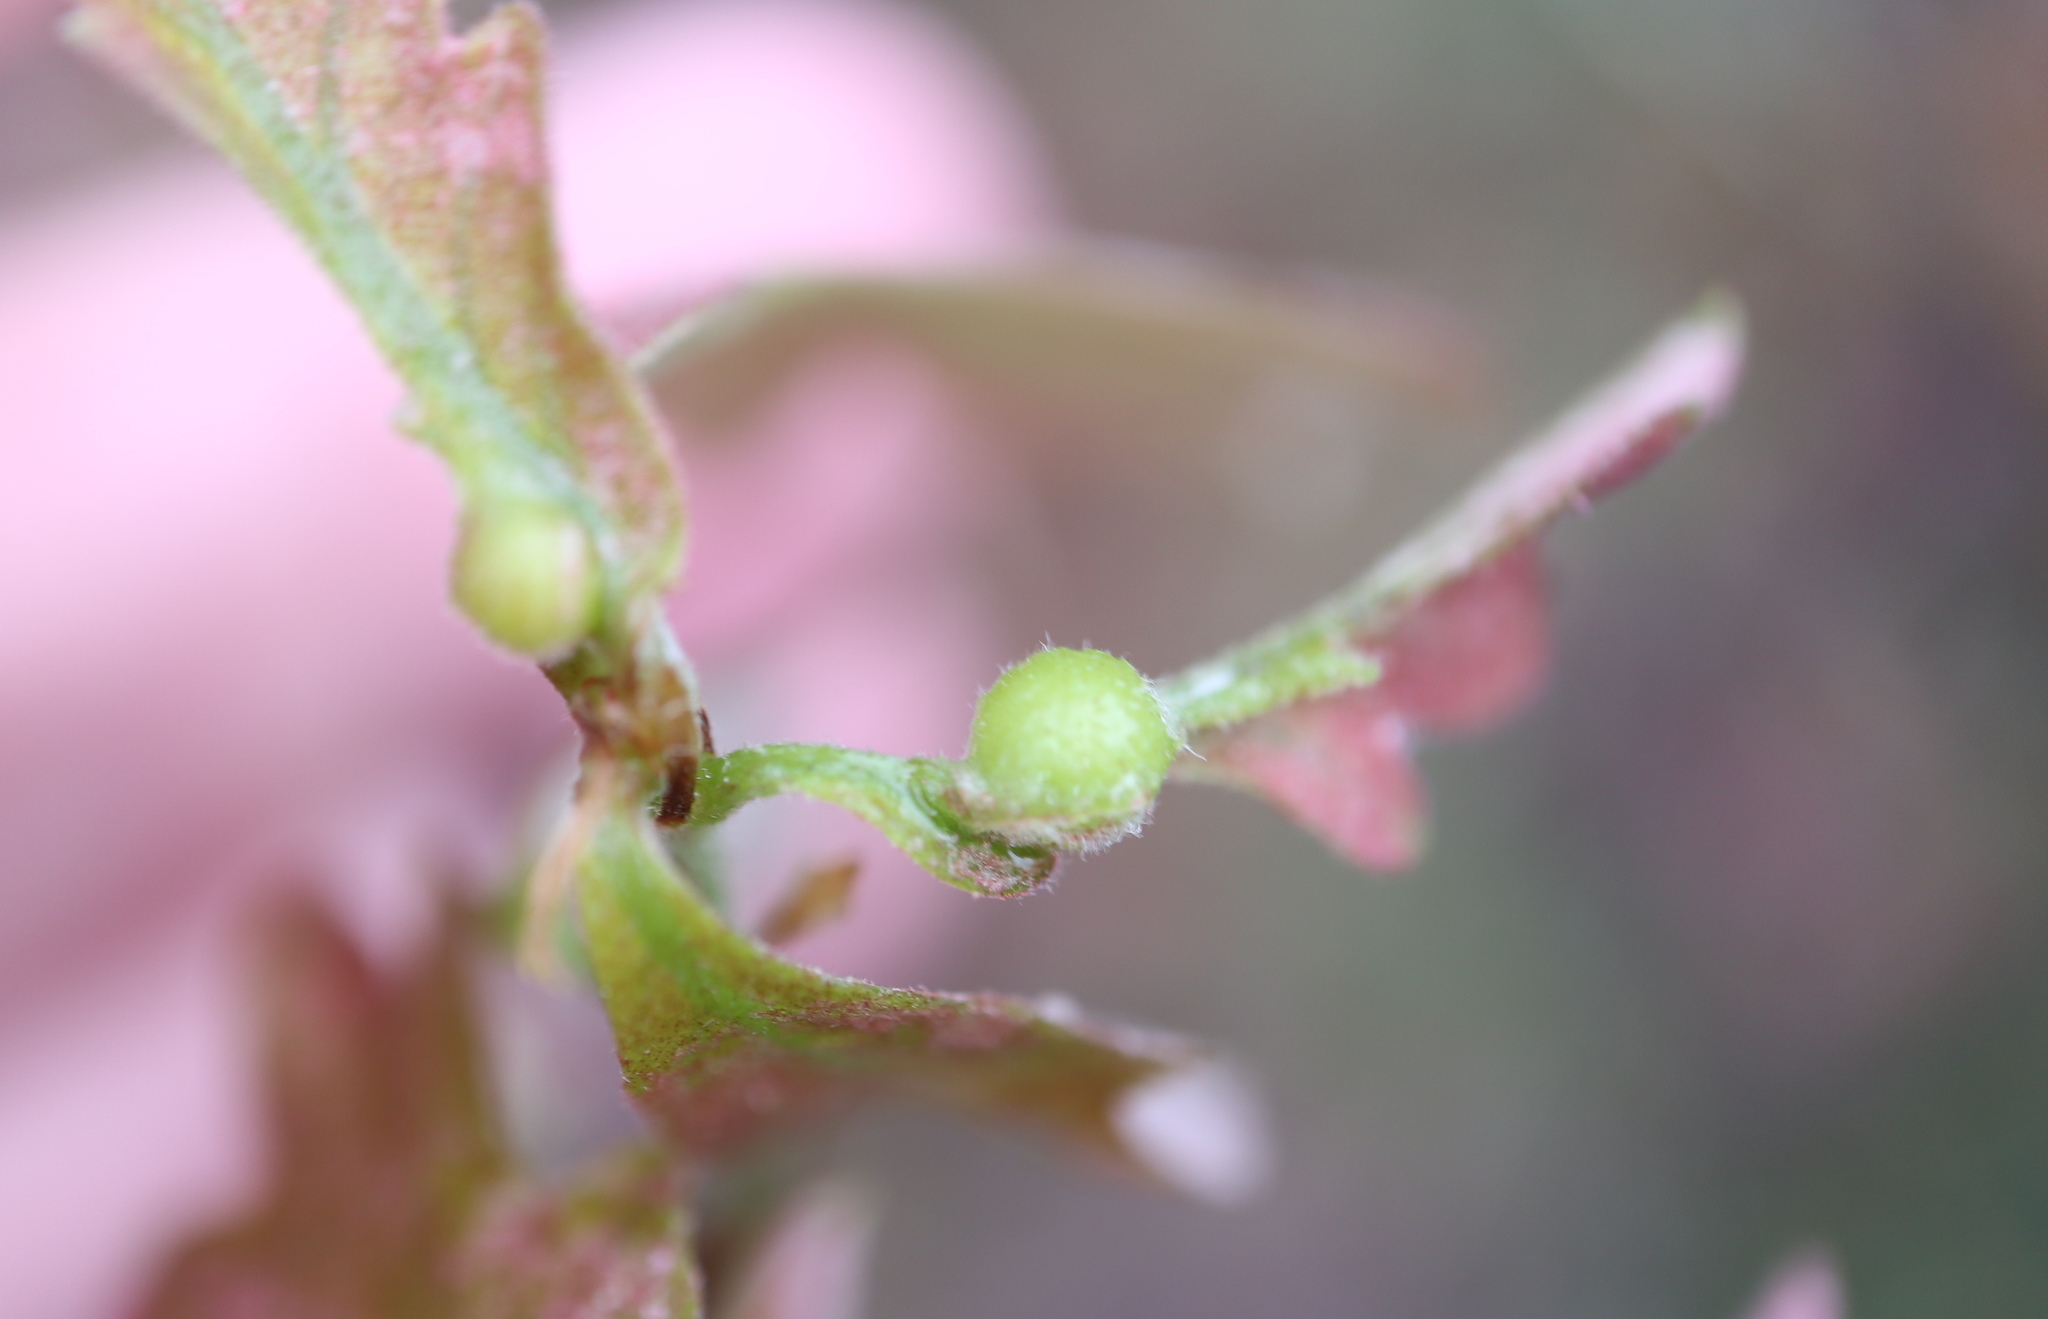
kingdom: Animalia
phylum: Arthropoda
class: Insecta
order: Hymenoptera
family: Cynipidae
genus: Andricus
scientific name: Andricus
